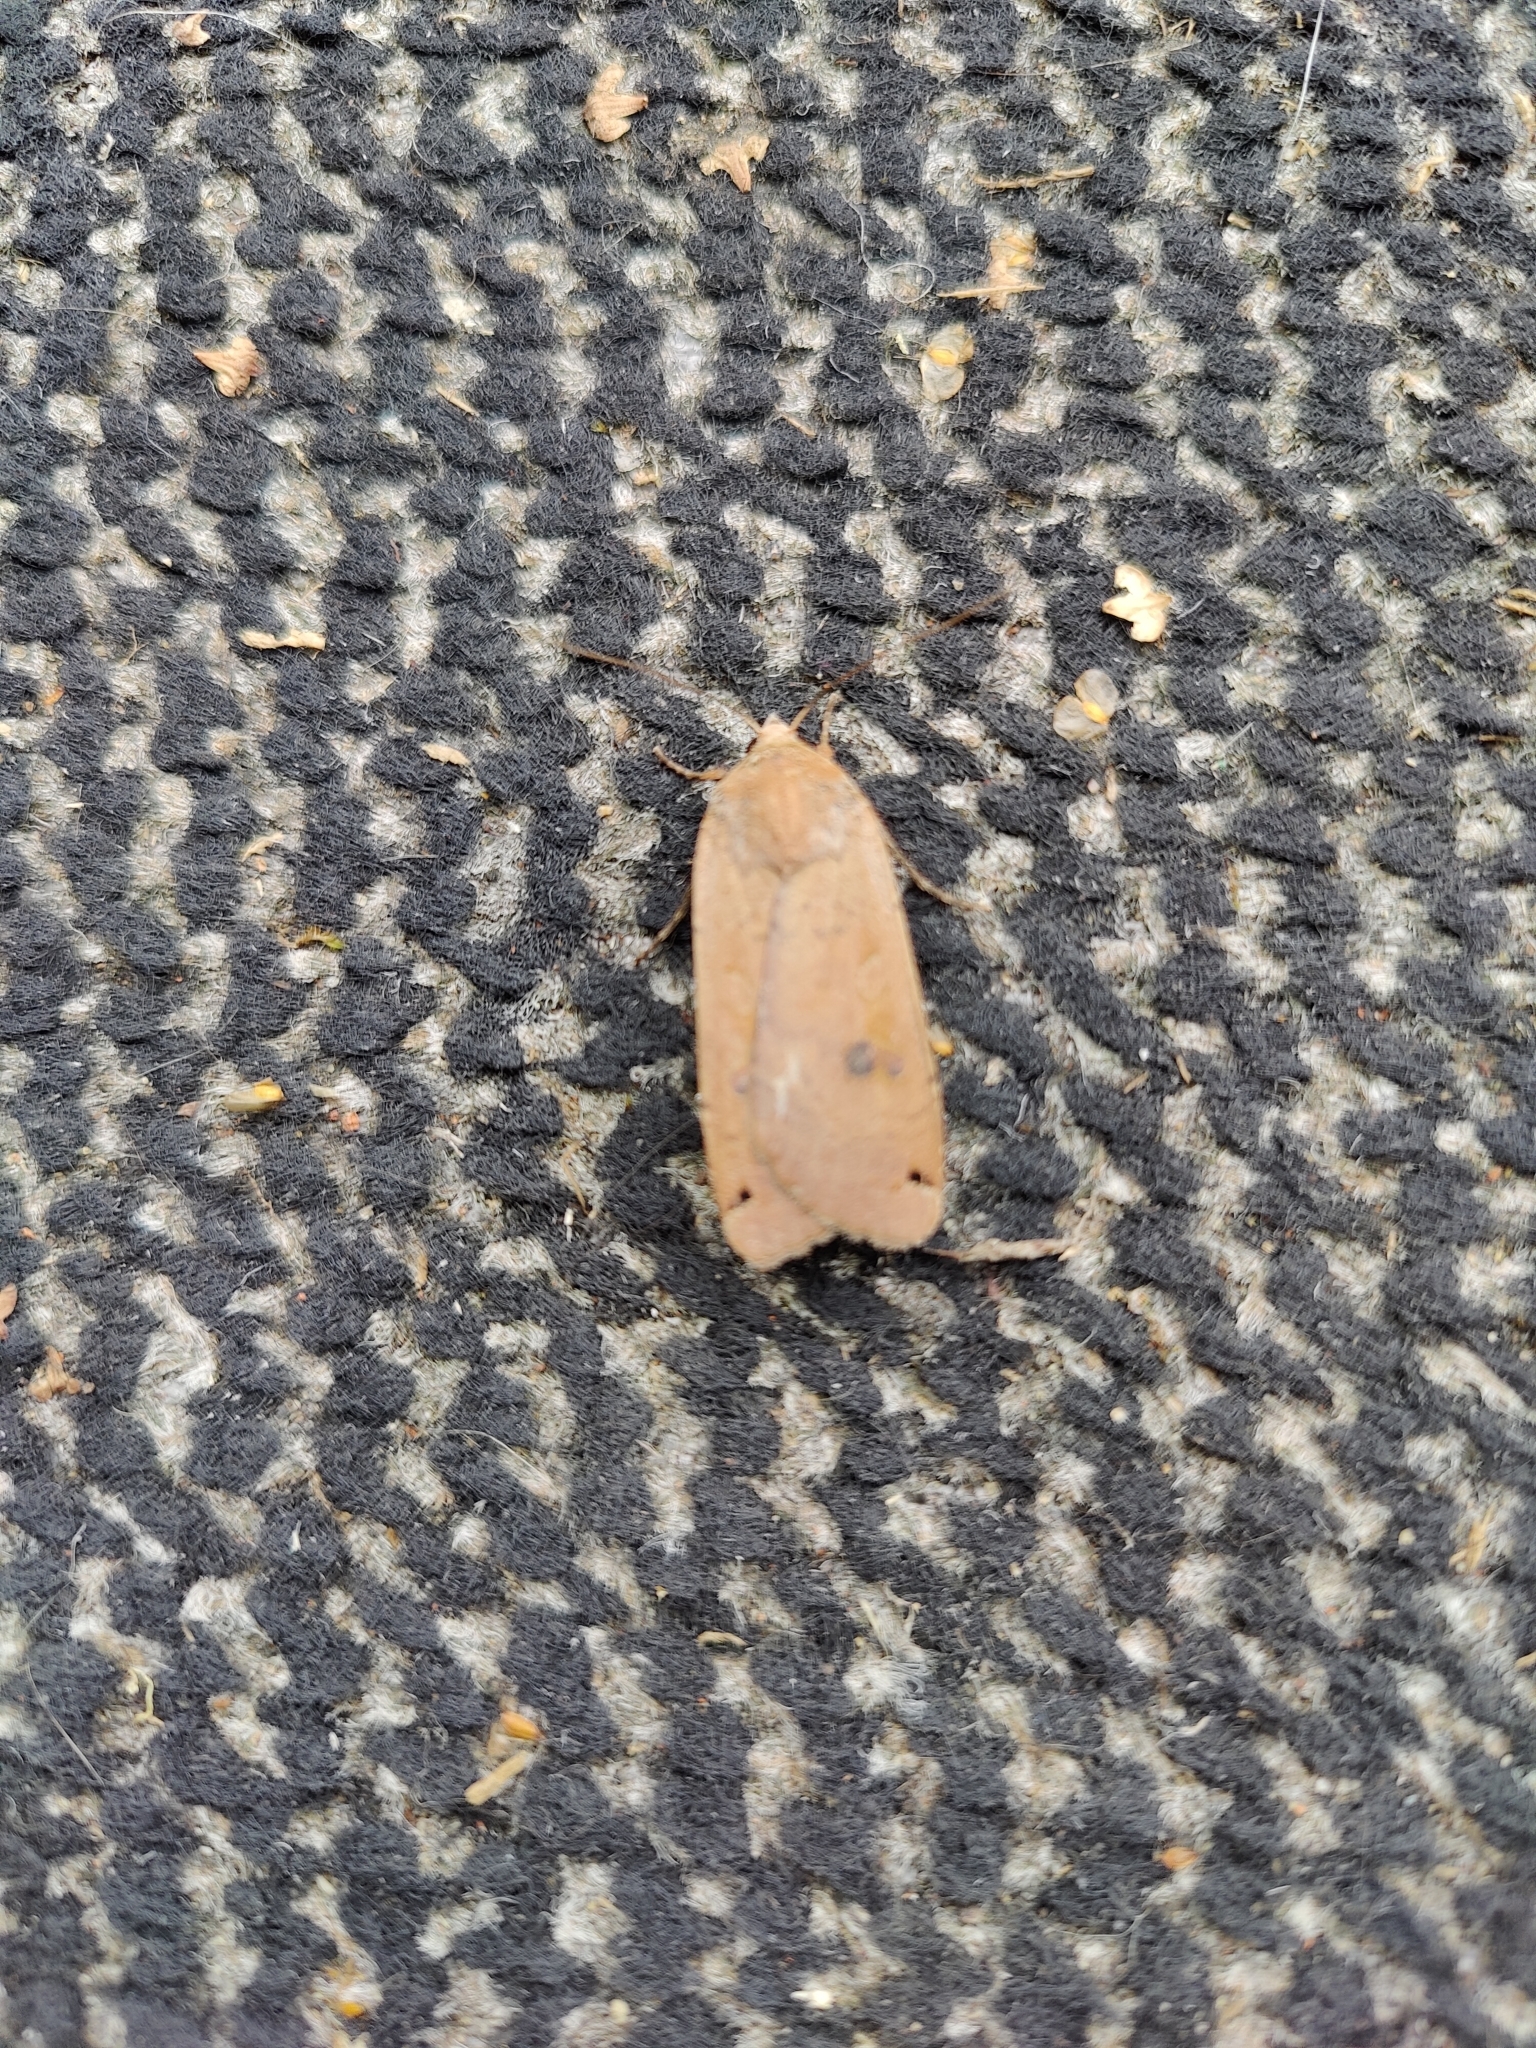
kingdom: Animalia
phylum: Arthropoda
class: Insecta
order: Lepidoptera
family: Noctuidae
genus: Noctua
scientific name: Noctua pronuba
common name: Large yellow underwing
